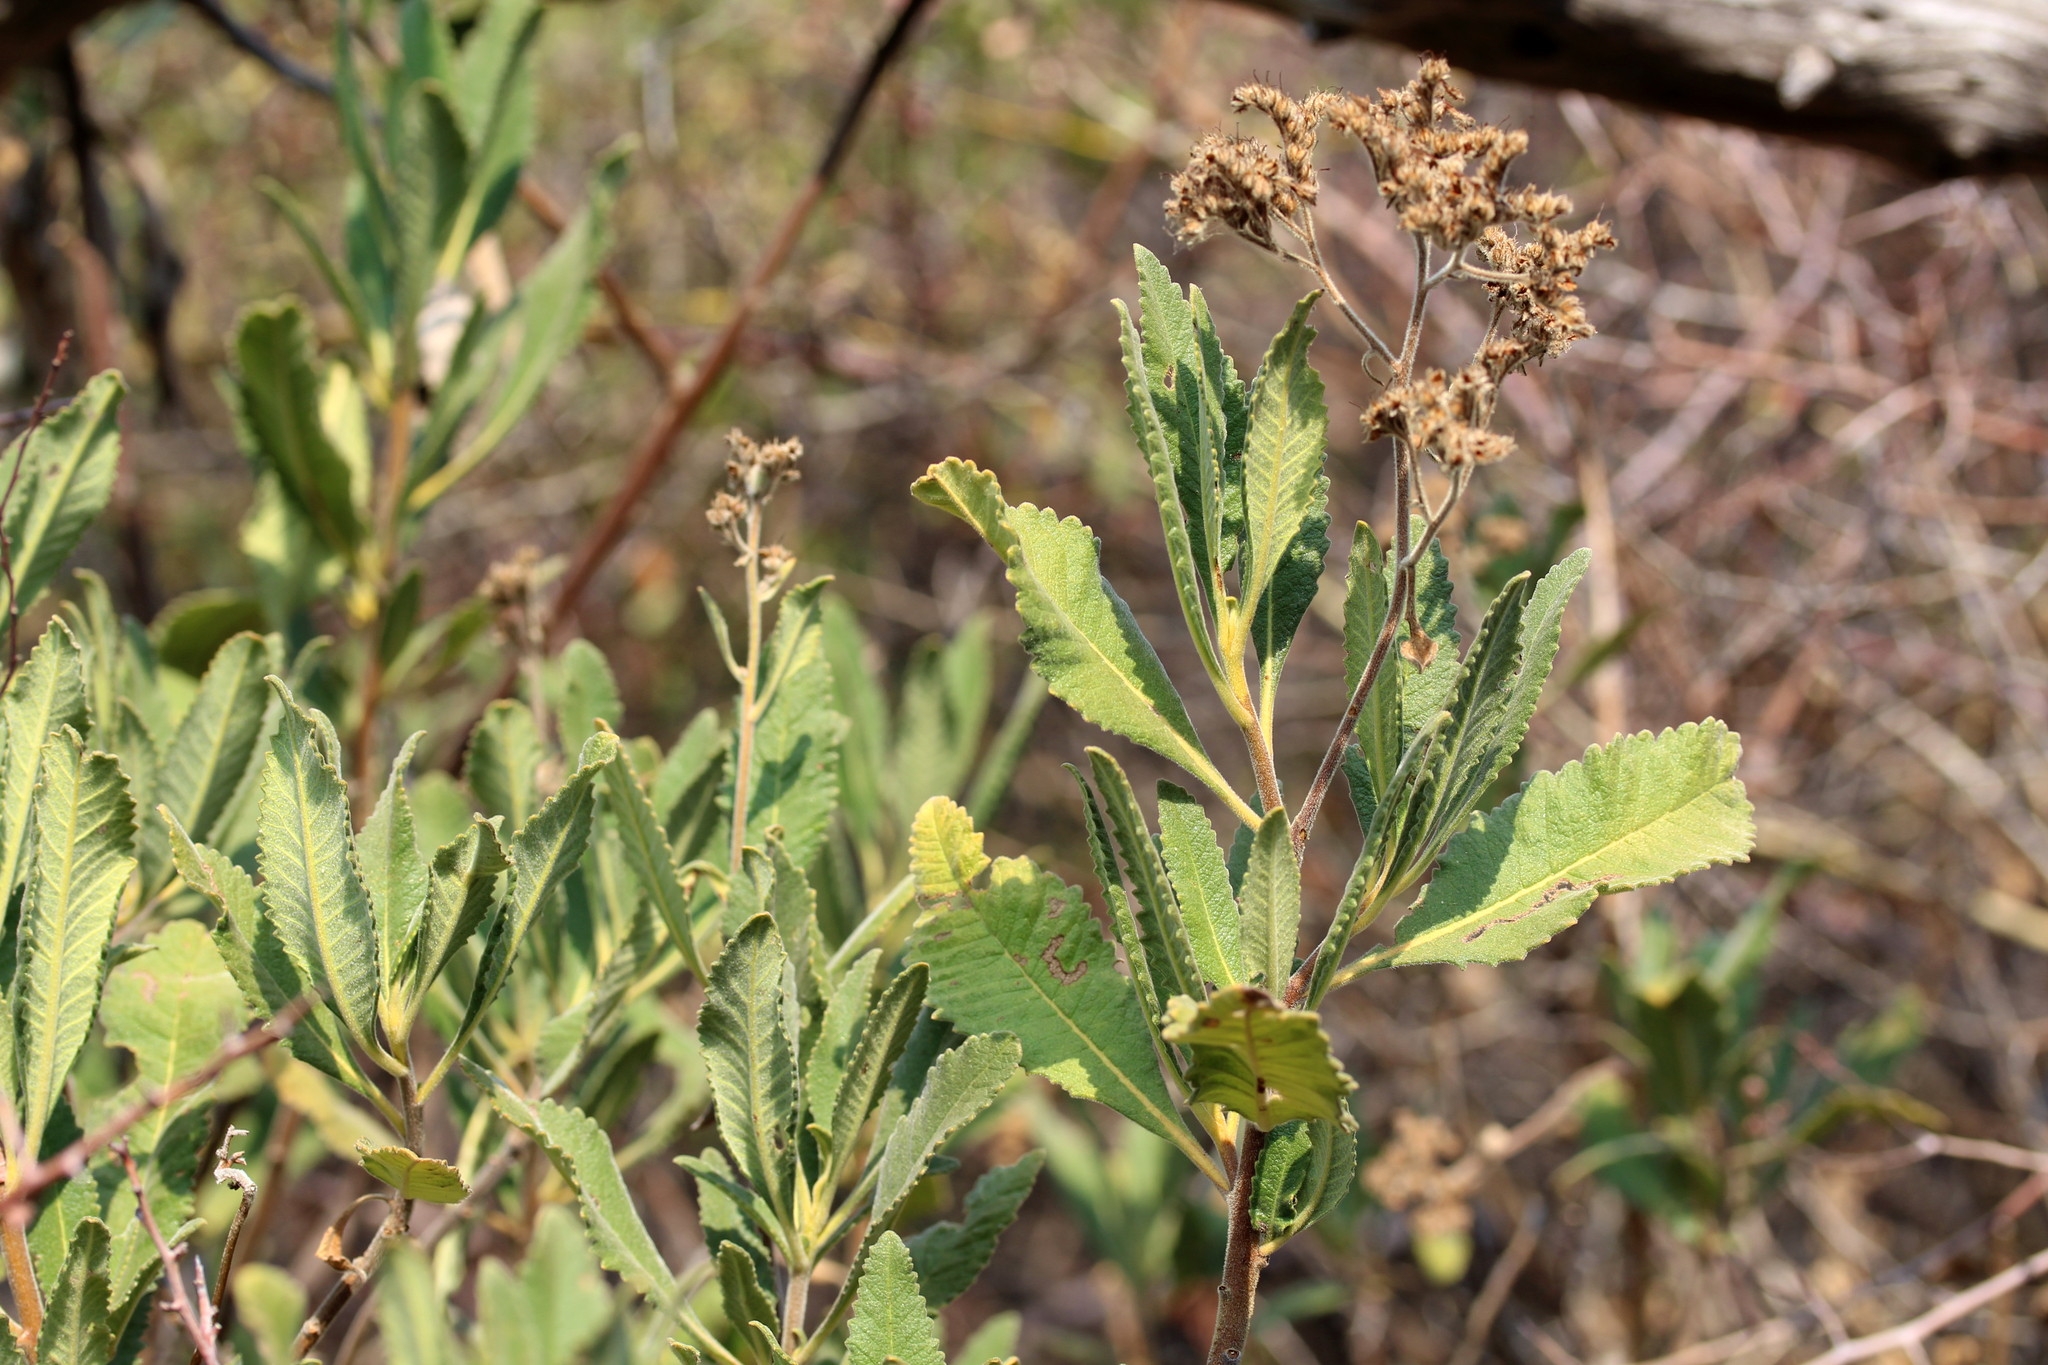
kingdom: Plantae
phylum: Tracheophyta
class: Magnoliopsida
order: Boraginales
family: Namaceae
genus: Eriodictyon
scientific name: Eriodictyon crassifolium
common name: Thick-leaf yerba-santa
